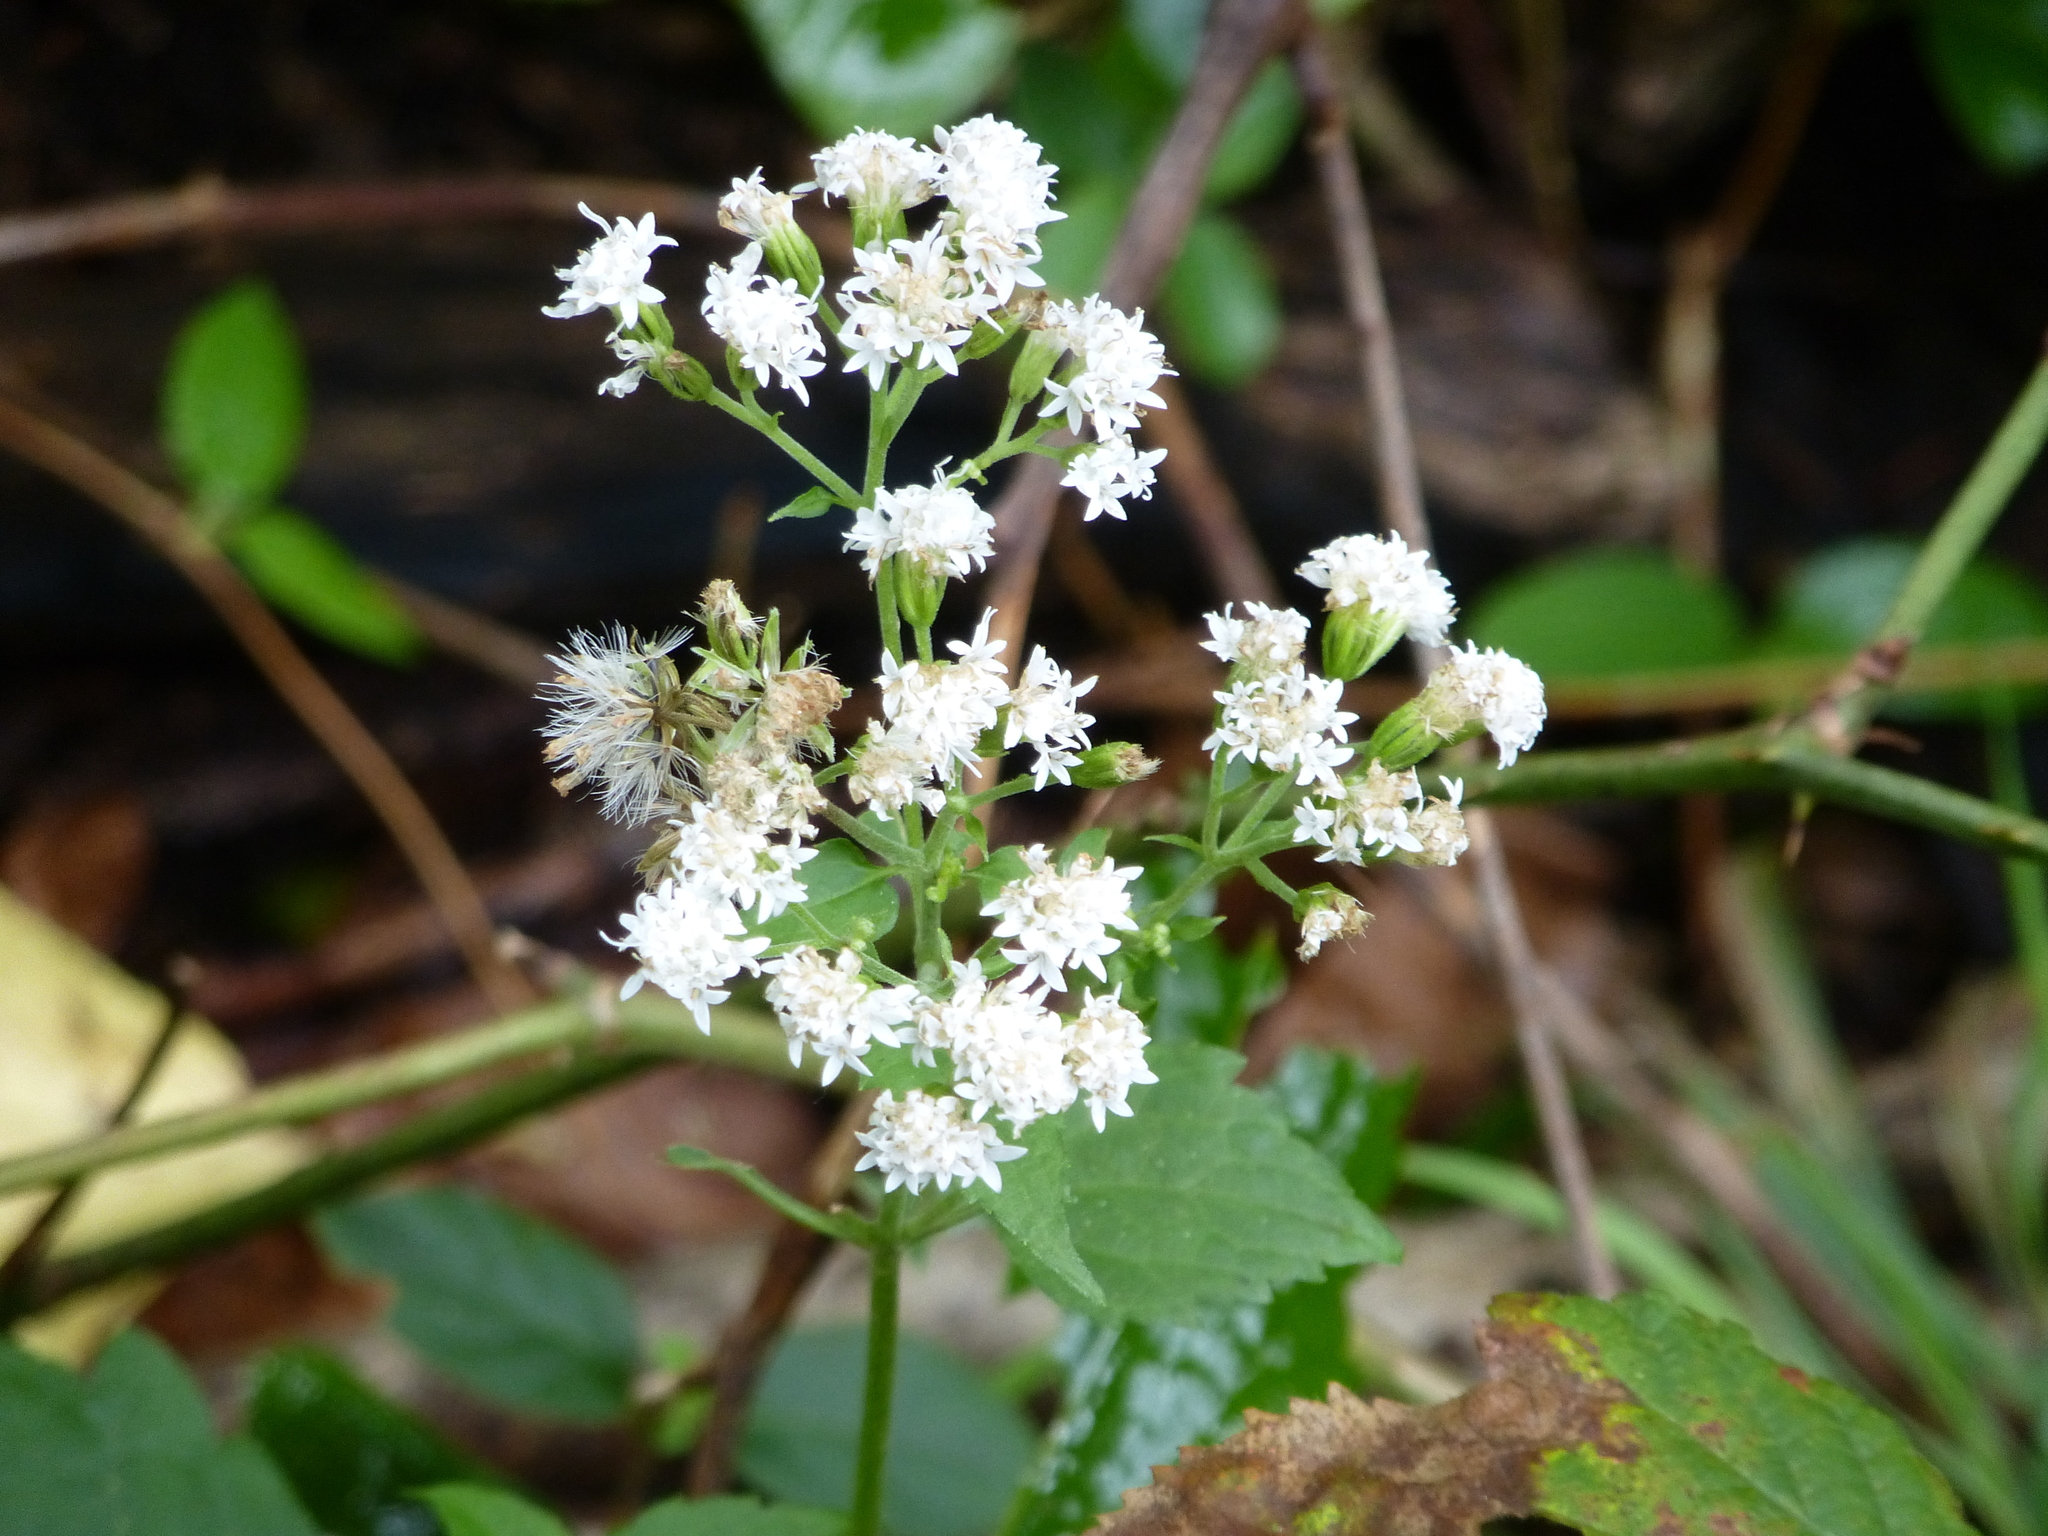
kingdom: Plantae
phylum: Tracheophyta
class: Magnoliopsida
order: Asterales
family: Asteraceae
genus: Ageratina
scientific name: Ageratina altissima
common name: White snakeroot
